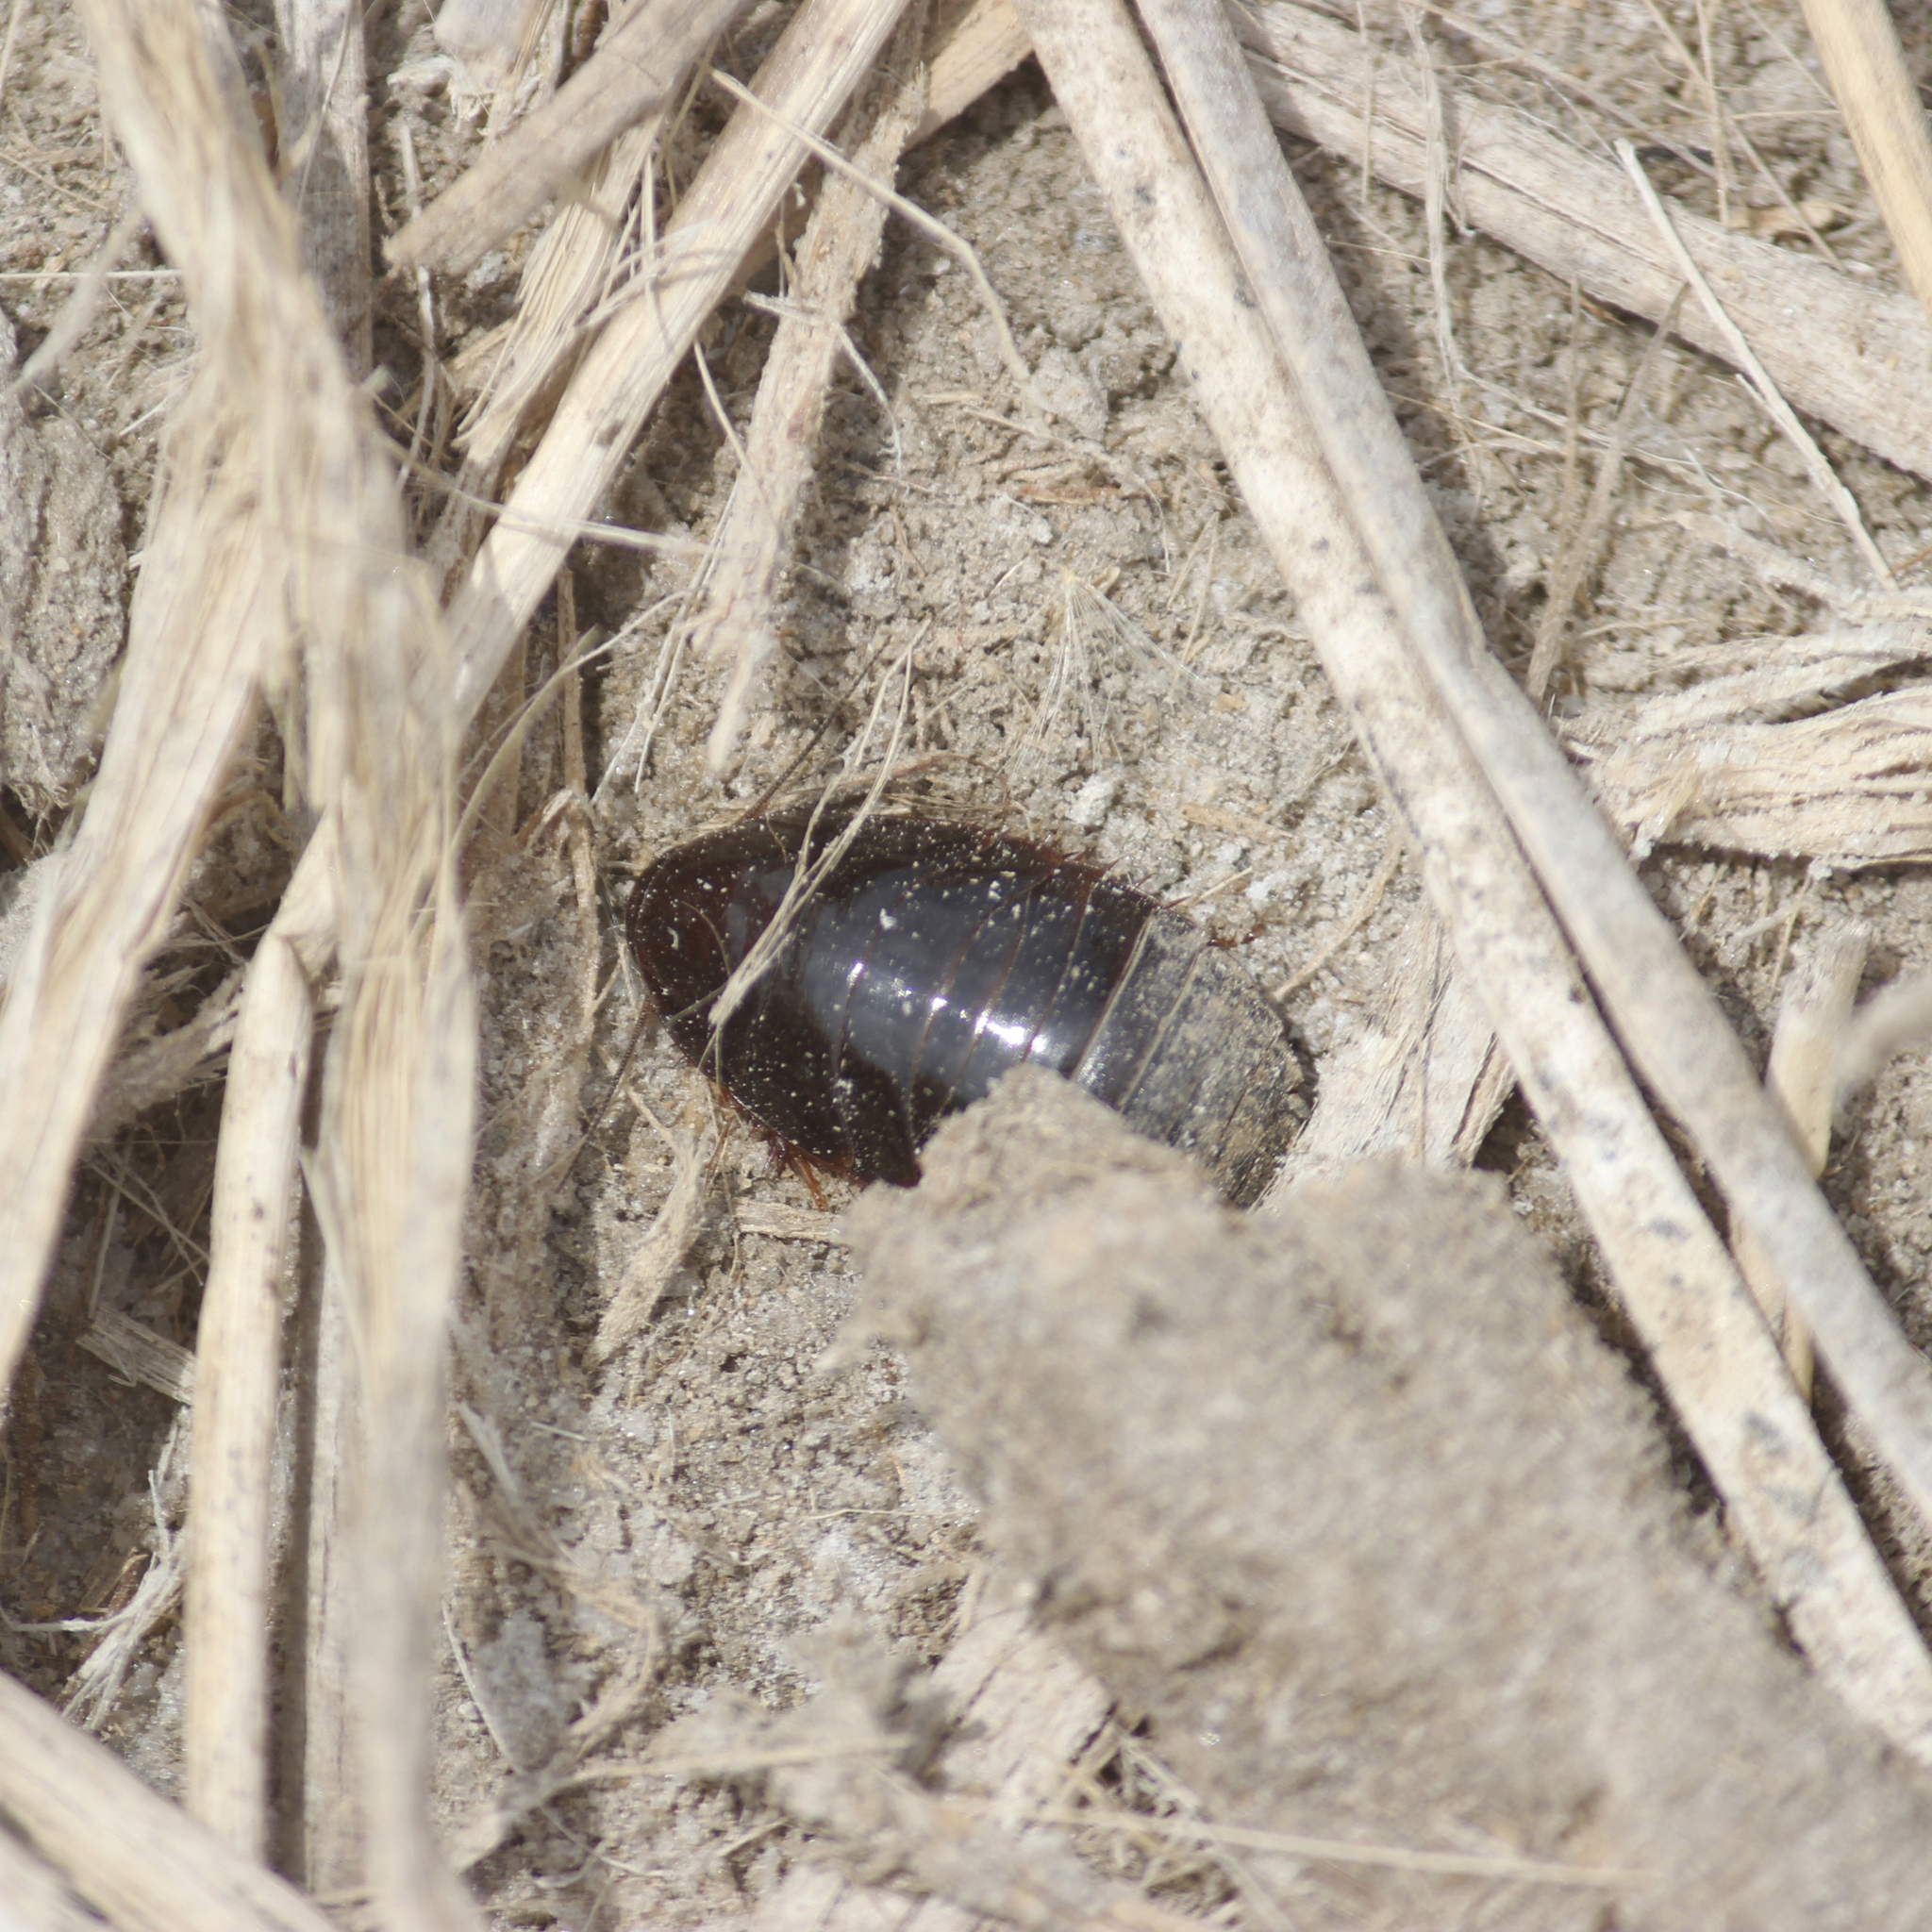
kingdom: Animalia
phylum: Arthropoda
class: Insecta
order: Blattodea
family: Blaberidae
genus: Pycnoscelus
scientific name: Pycnoscelus surinamensis
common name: Surinam cockroach
